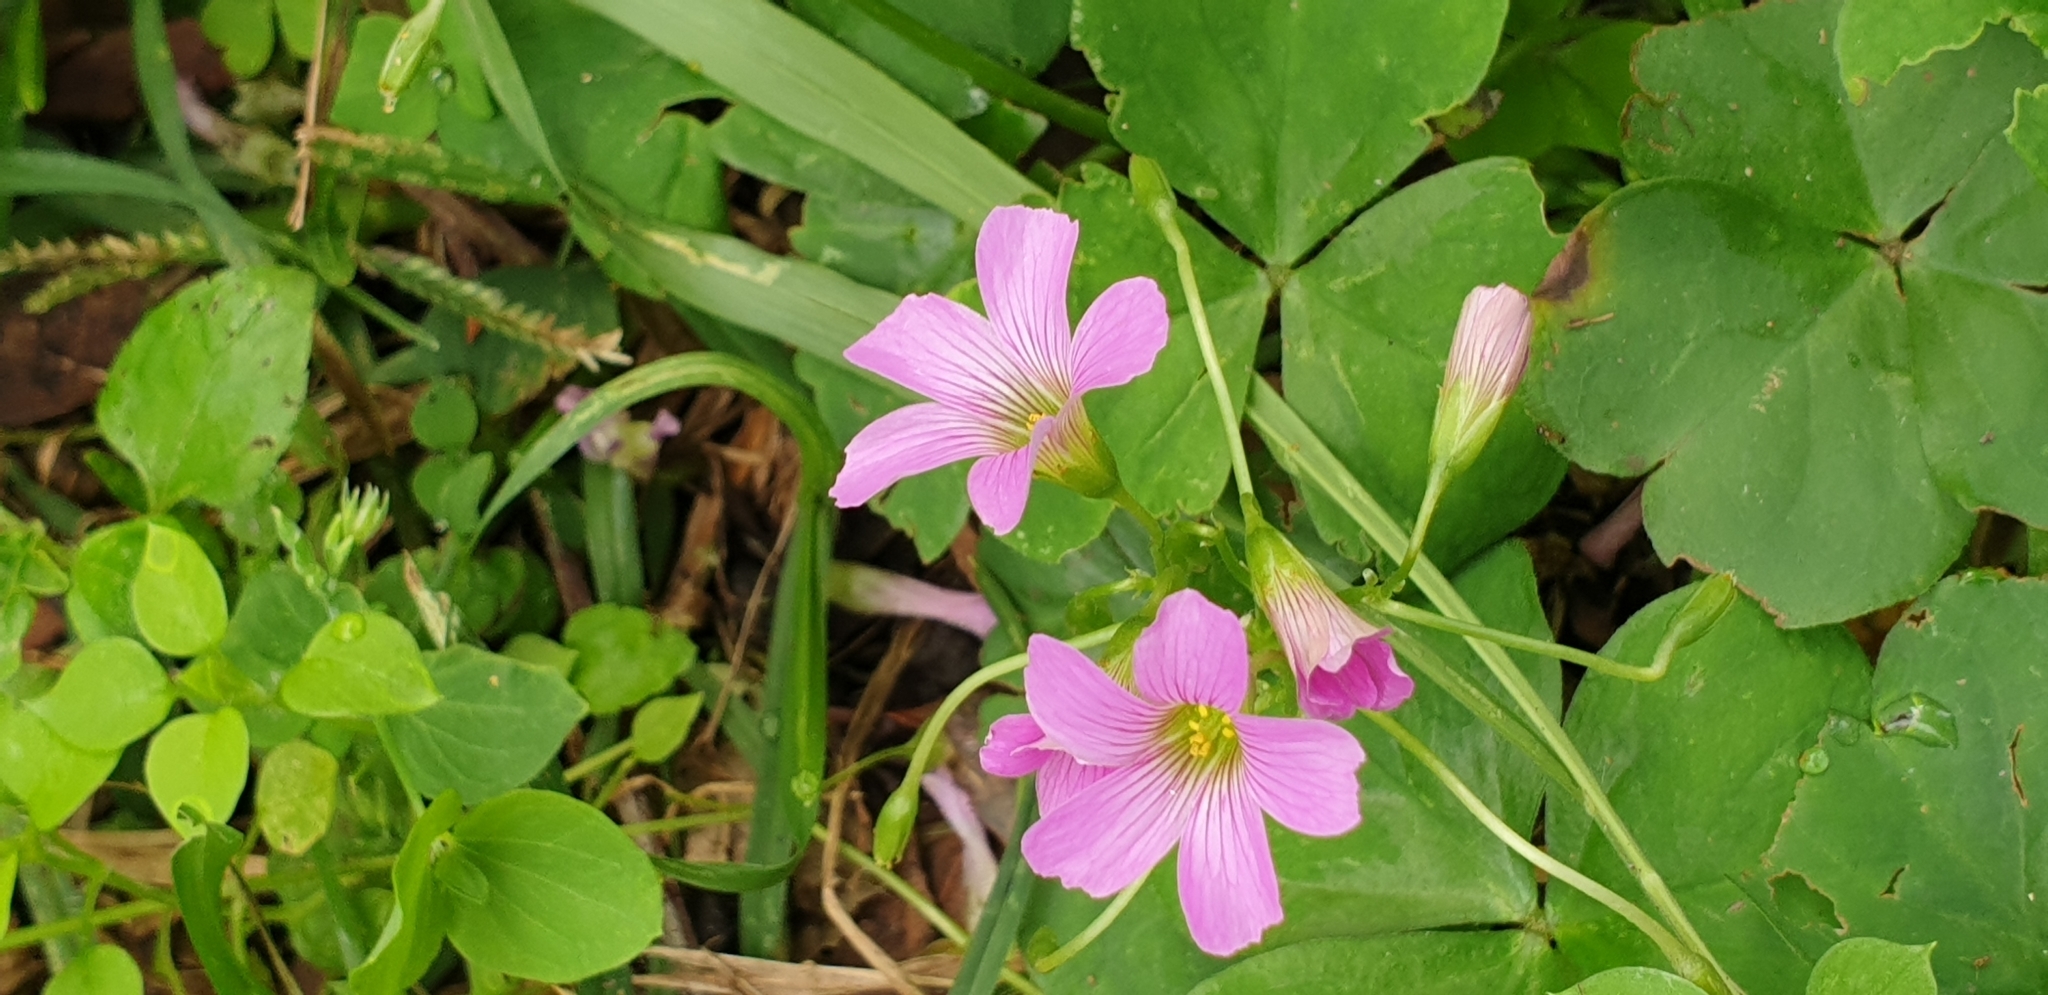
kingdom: Plantae
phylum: Tracheophyta
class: Magnoliopsida
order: Oxalidales
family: Oxalidaceae
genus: Oxalis
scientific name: Oxalis debilis
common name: Large-flowered pink-sorrel
